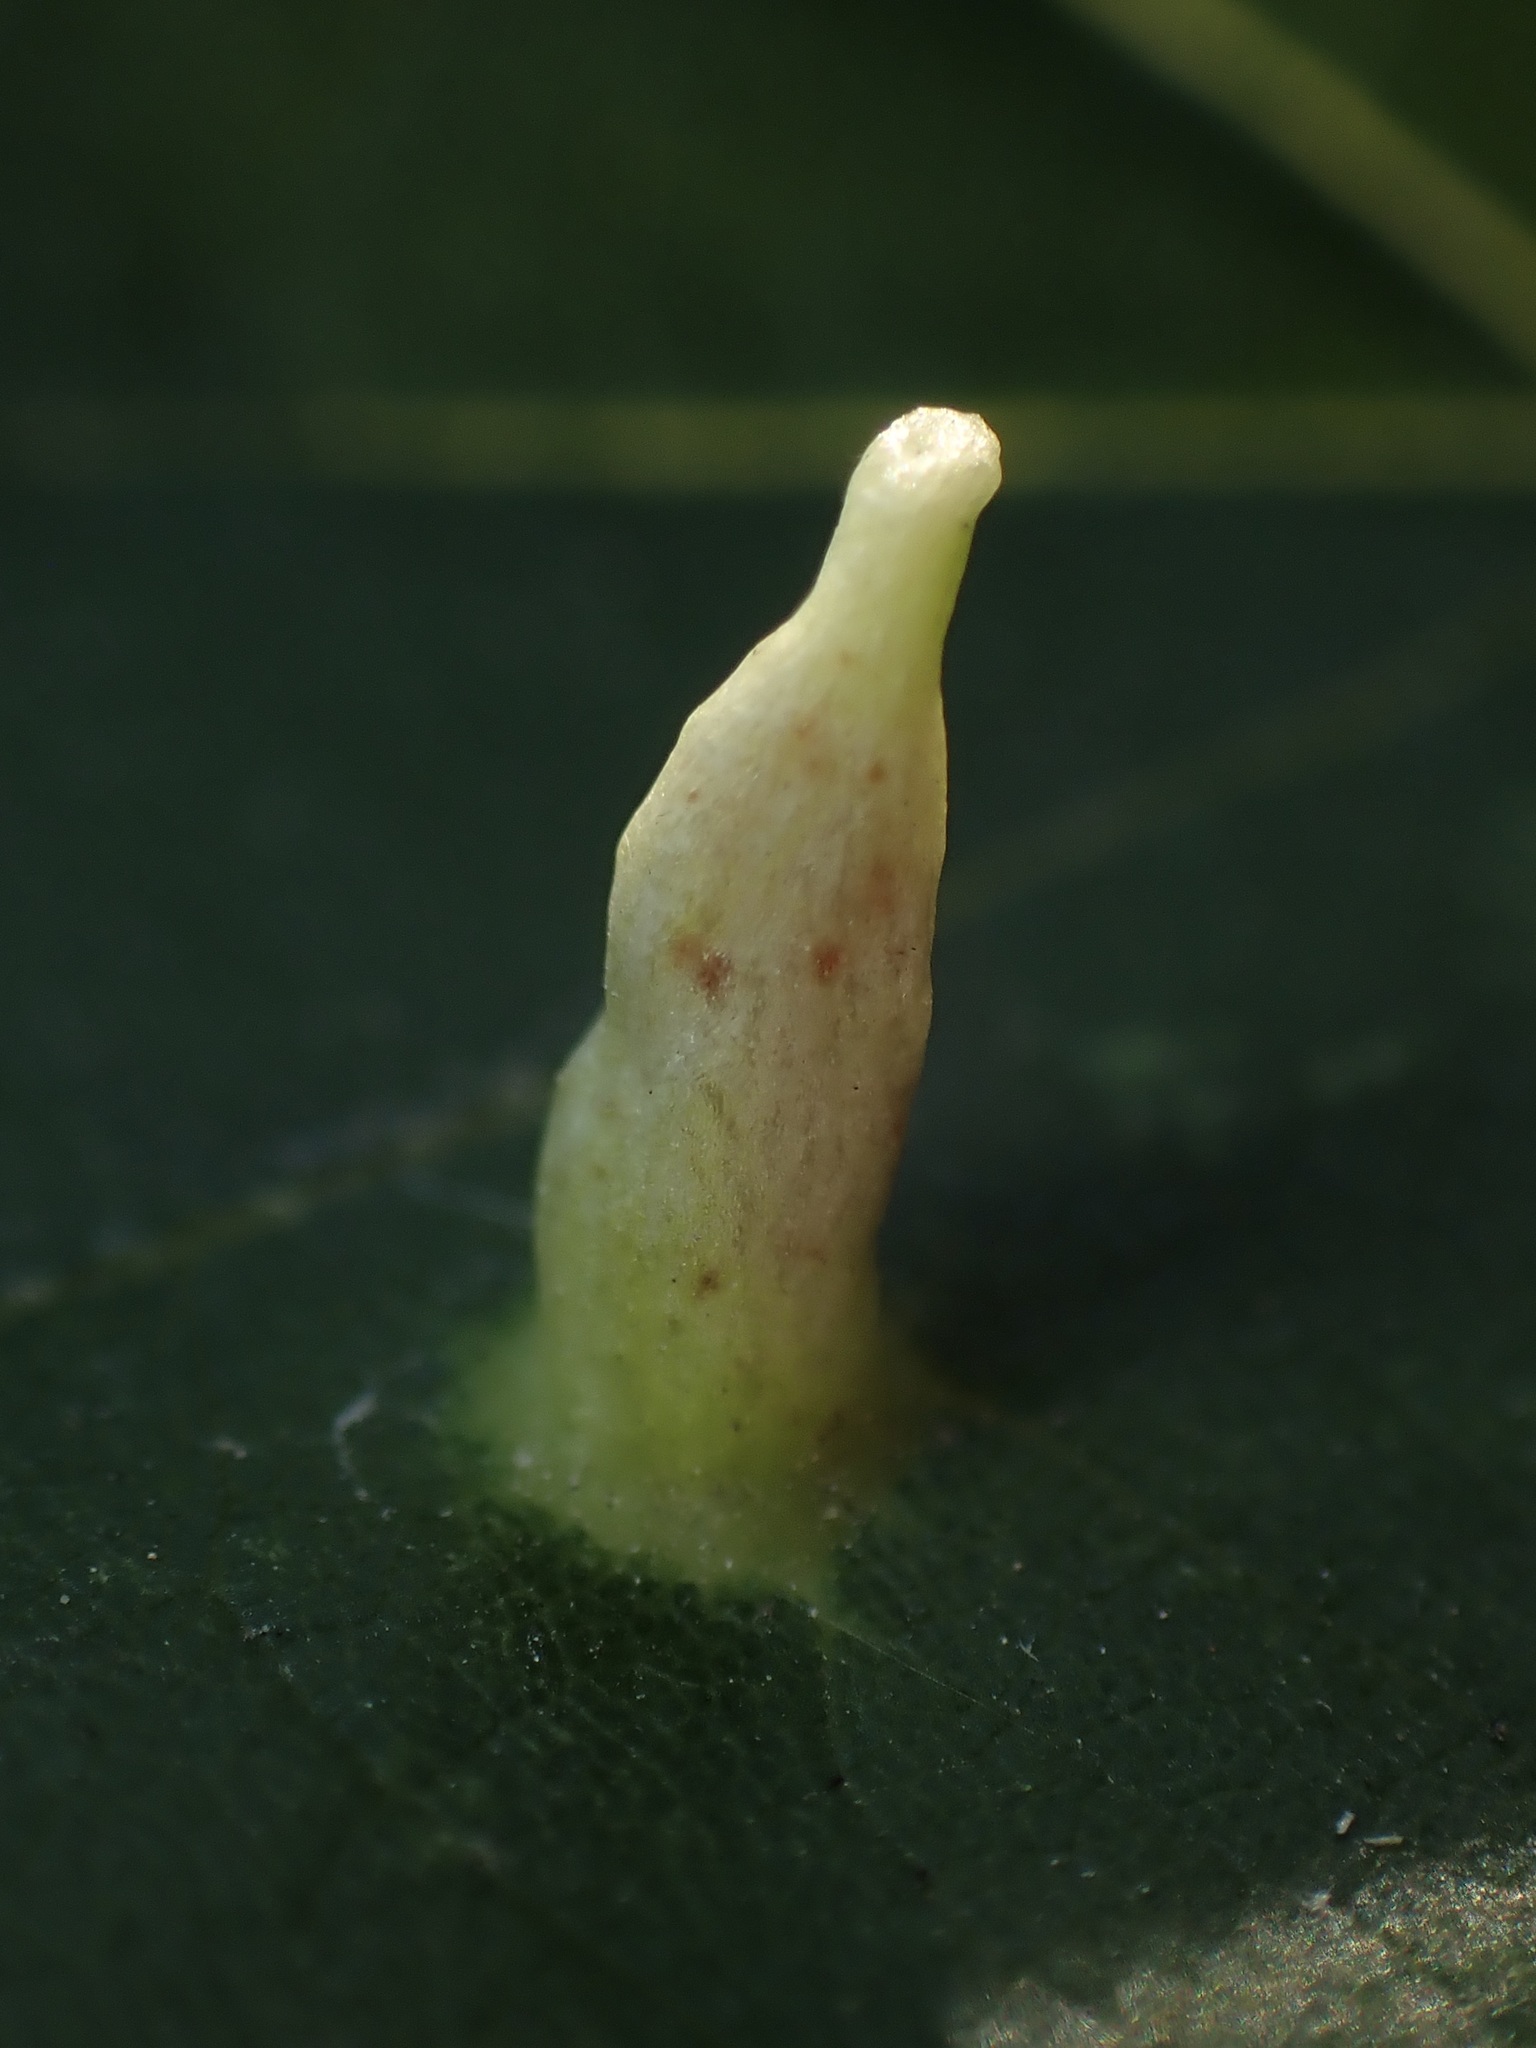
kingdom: Animalia
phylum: Arthropoda
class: Arachnida
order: Trombidiformes
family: Eriophyidae
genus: Eriophyes
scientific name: Eriophyes tiliae
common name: Red nail gall mite
